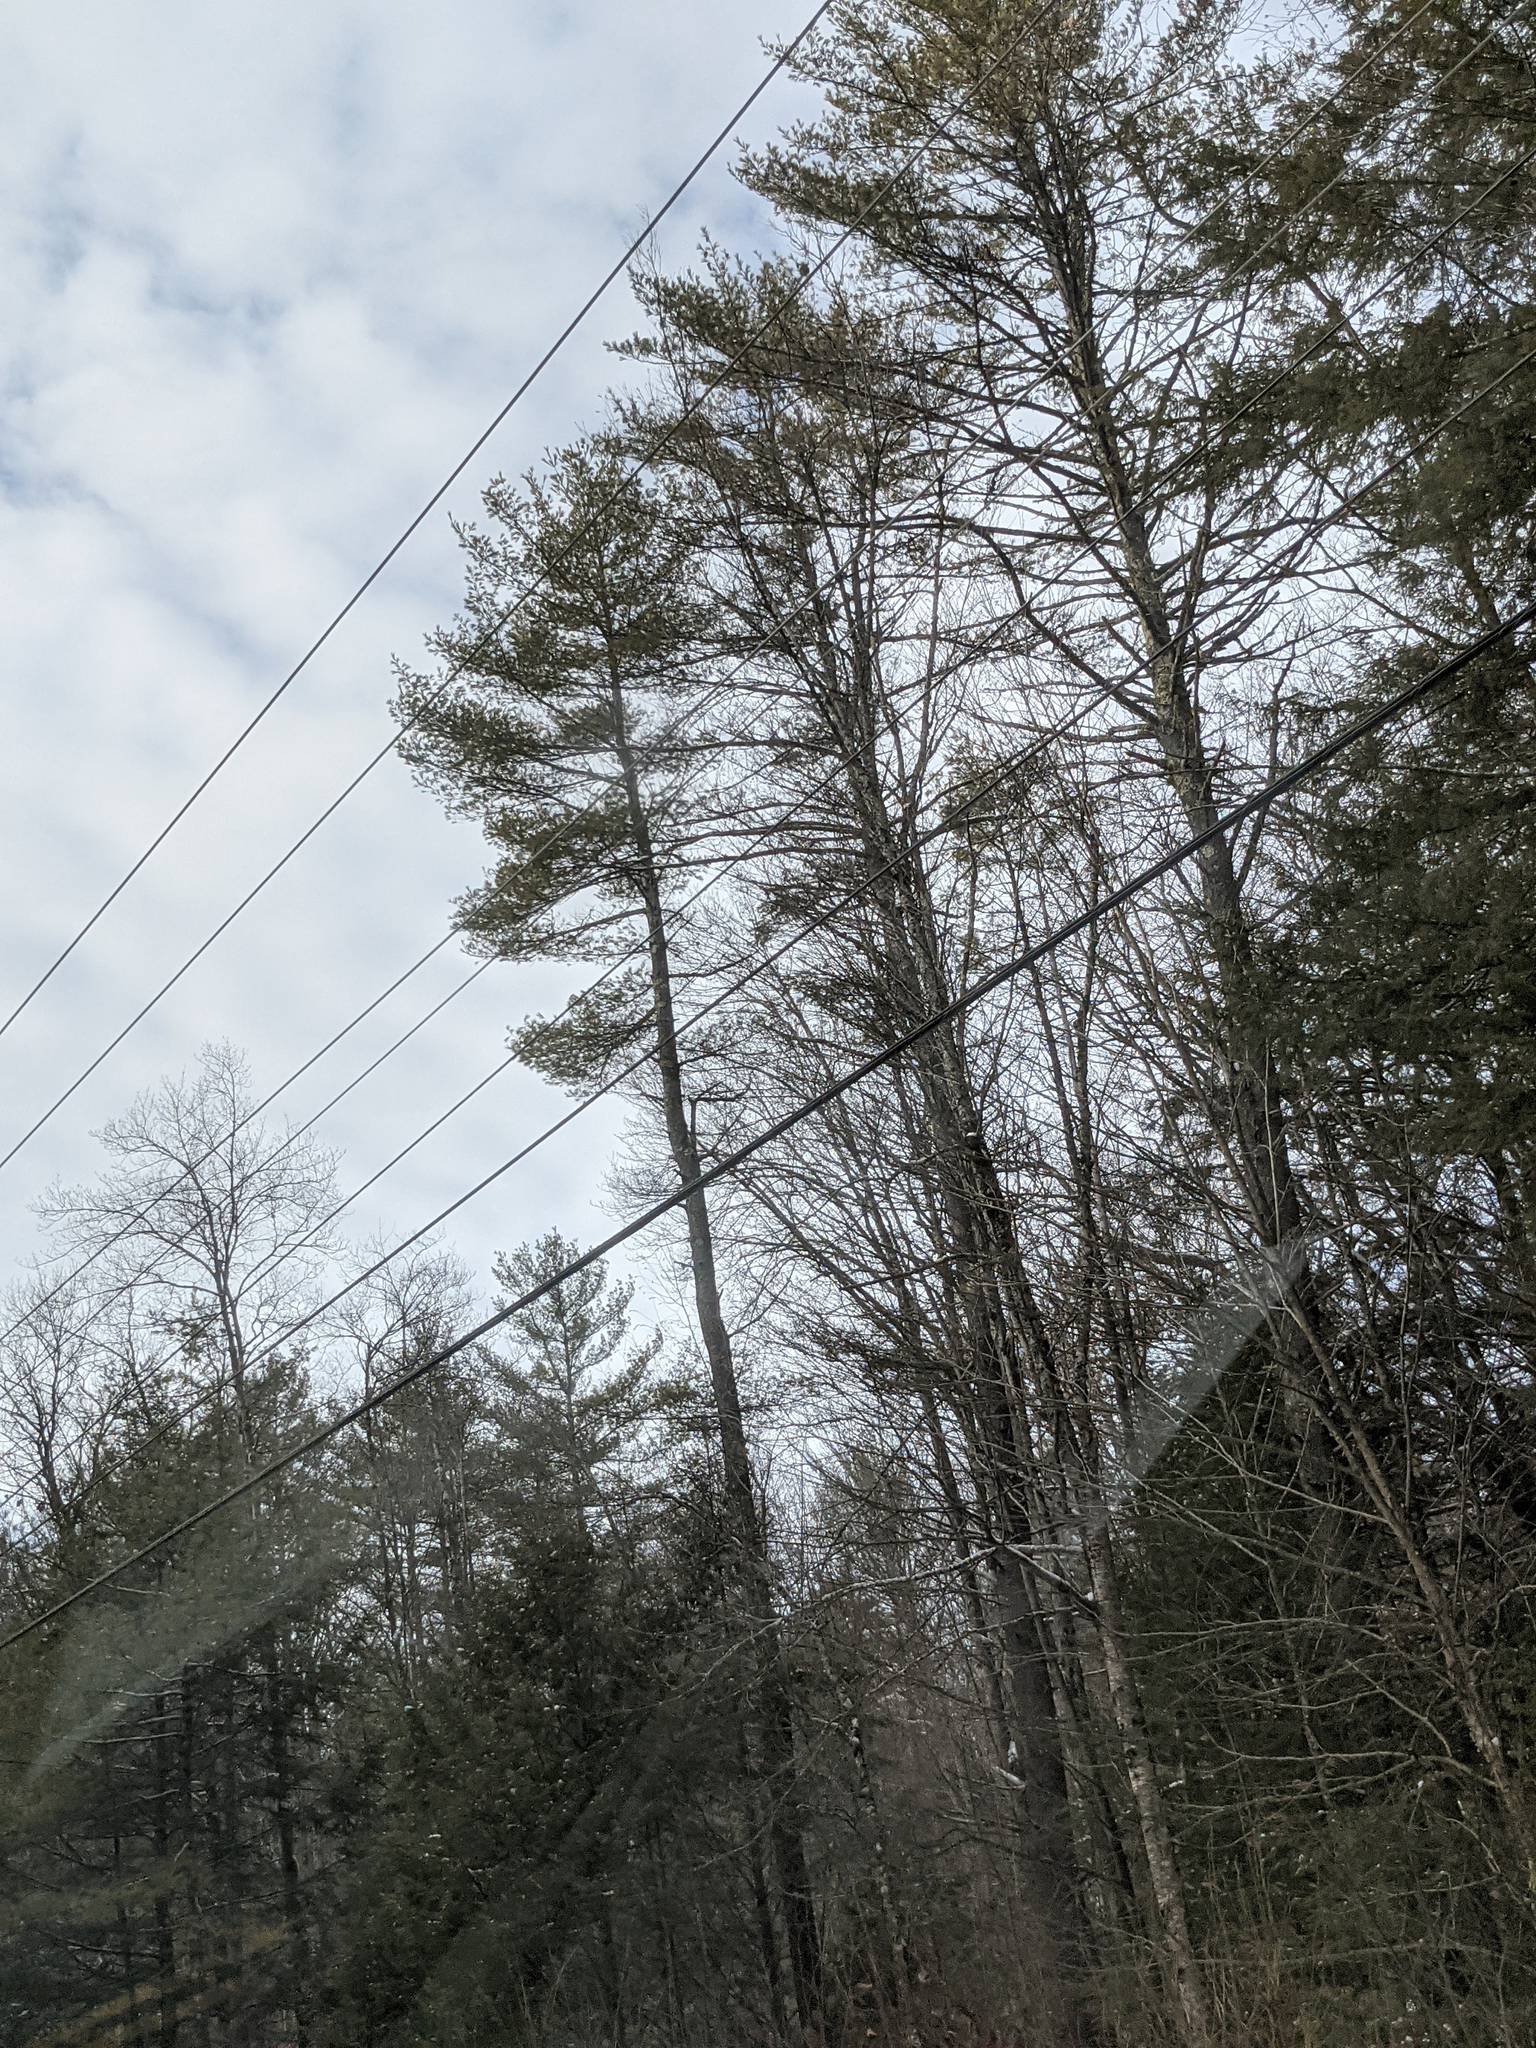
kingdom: Plantae
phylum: Tracheophyta
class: Pinopsida
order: Pinales
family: Pinaceae
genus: Pinus
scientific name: Pinus strobus
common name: Weymouth pine
